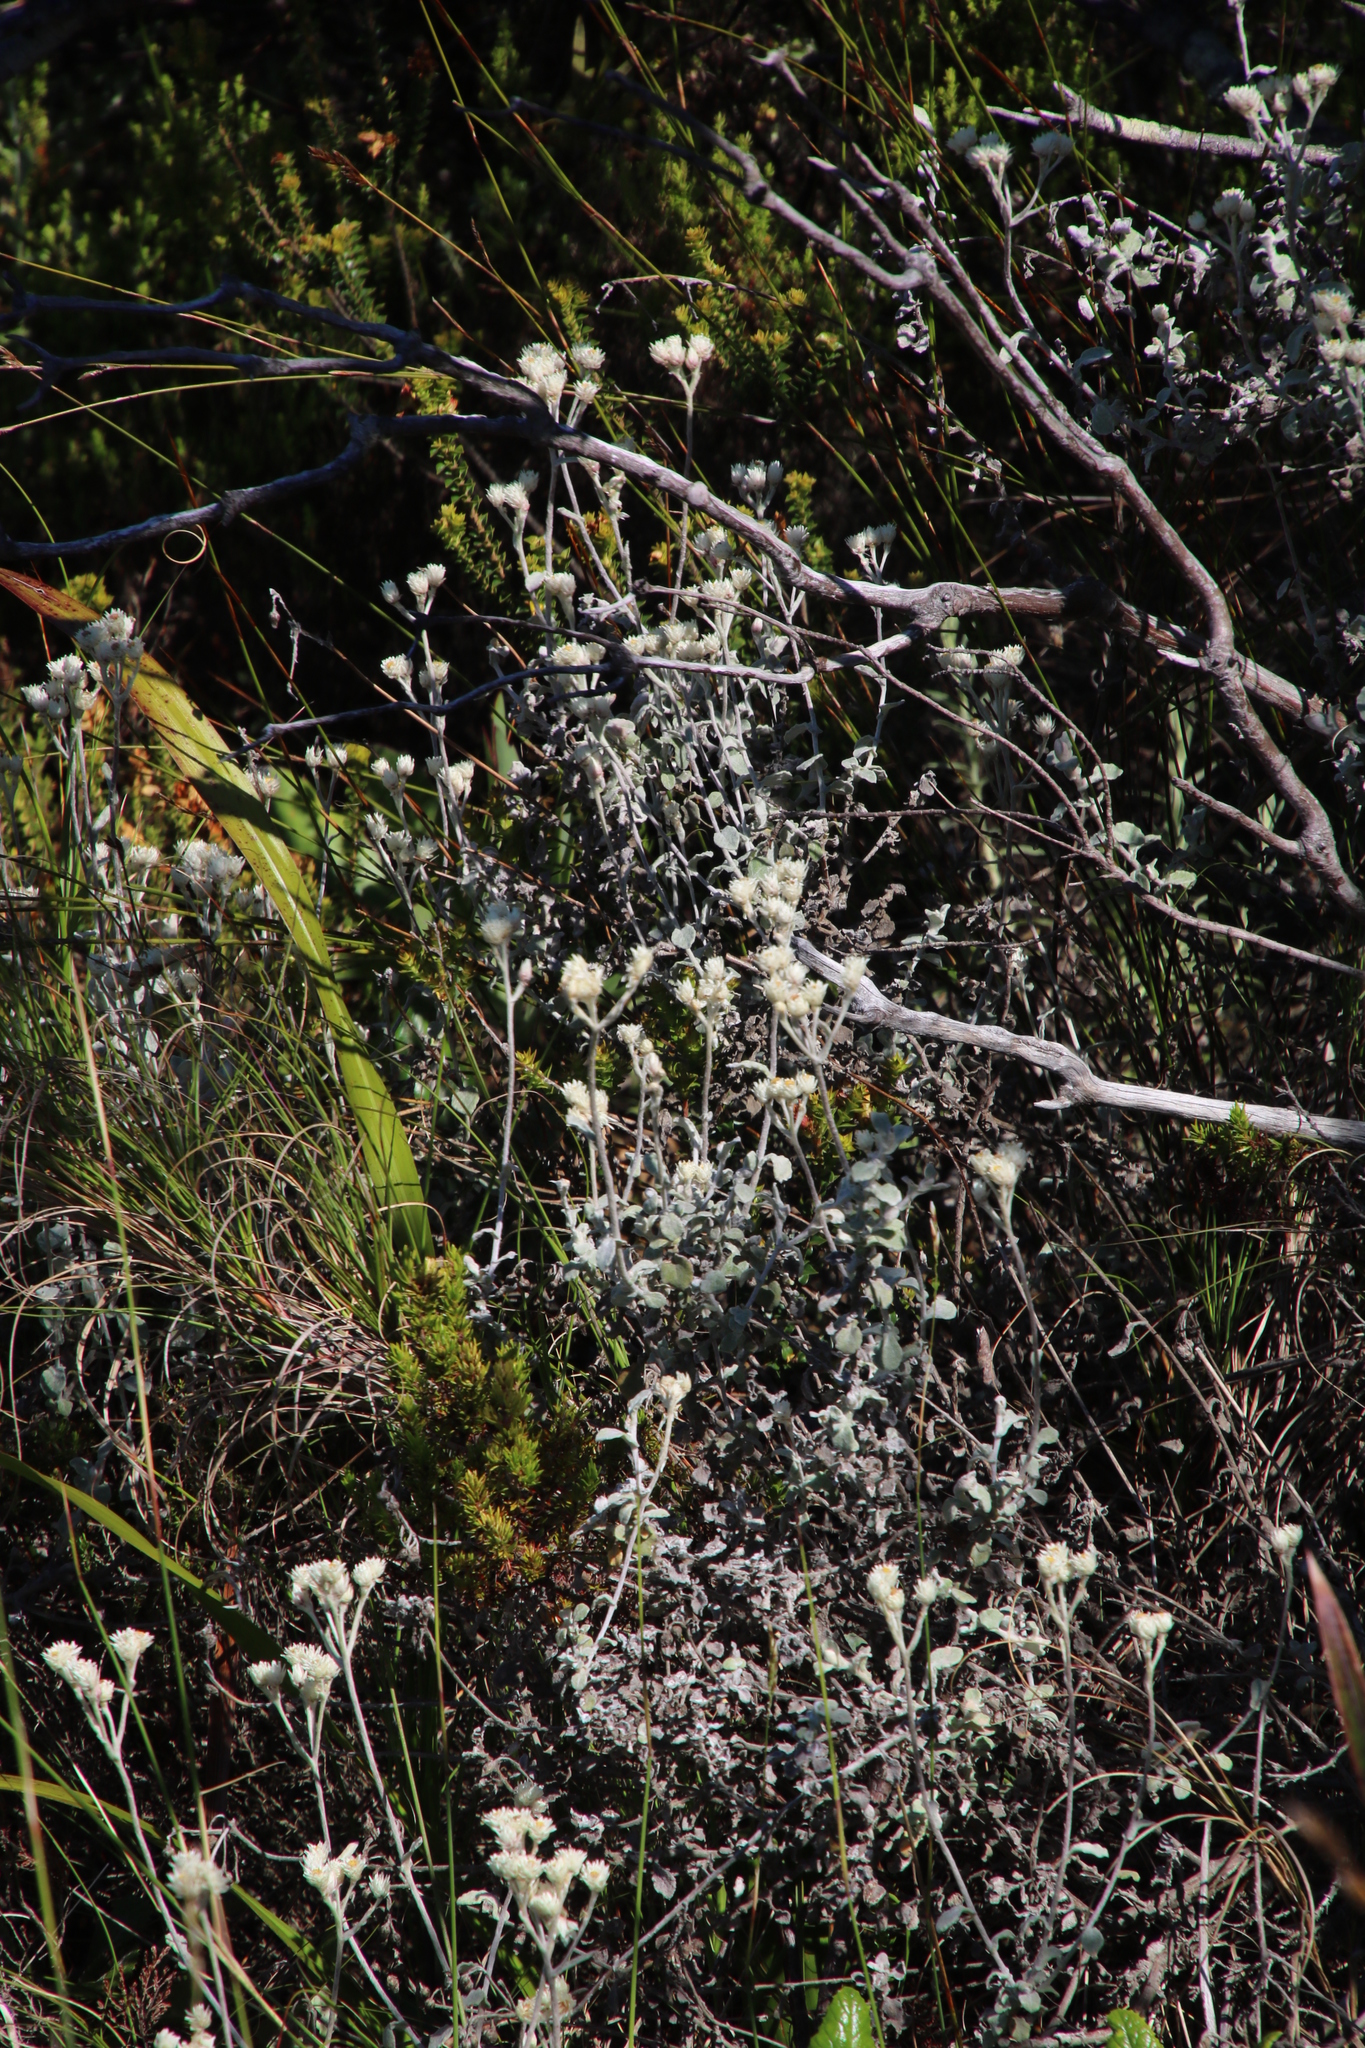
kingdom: Plantae
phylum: Tracheophyta
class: Magnoliopsida
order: Asterales
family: Asteraceae
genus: Helichrysum
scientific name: Helichrysum pandurifolium
